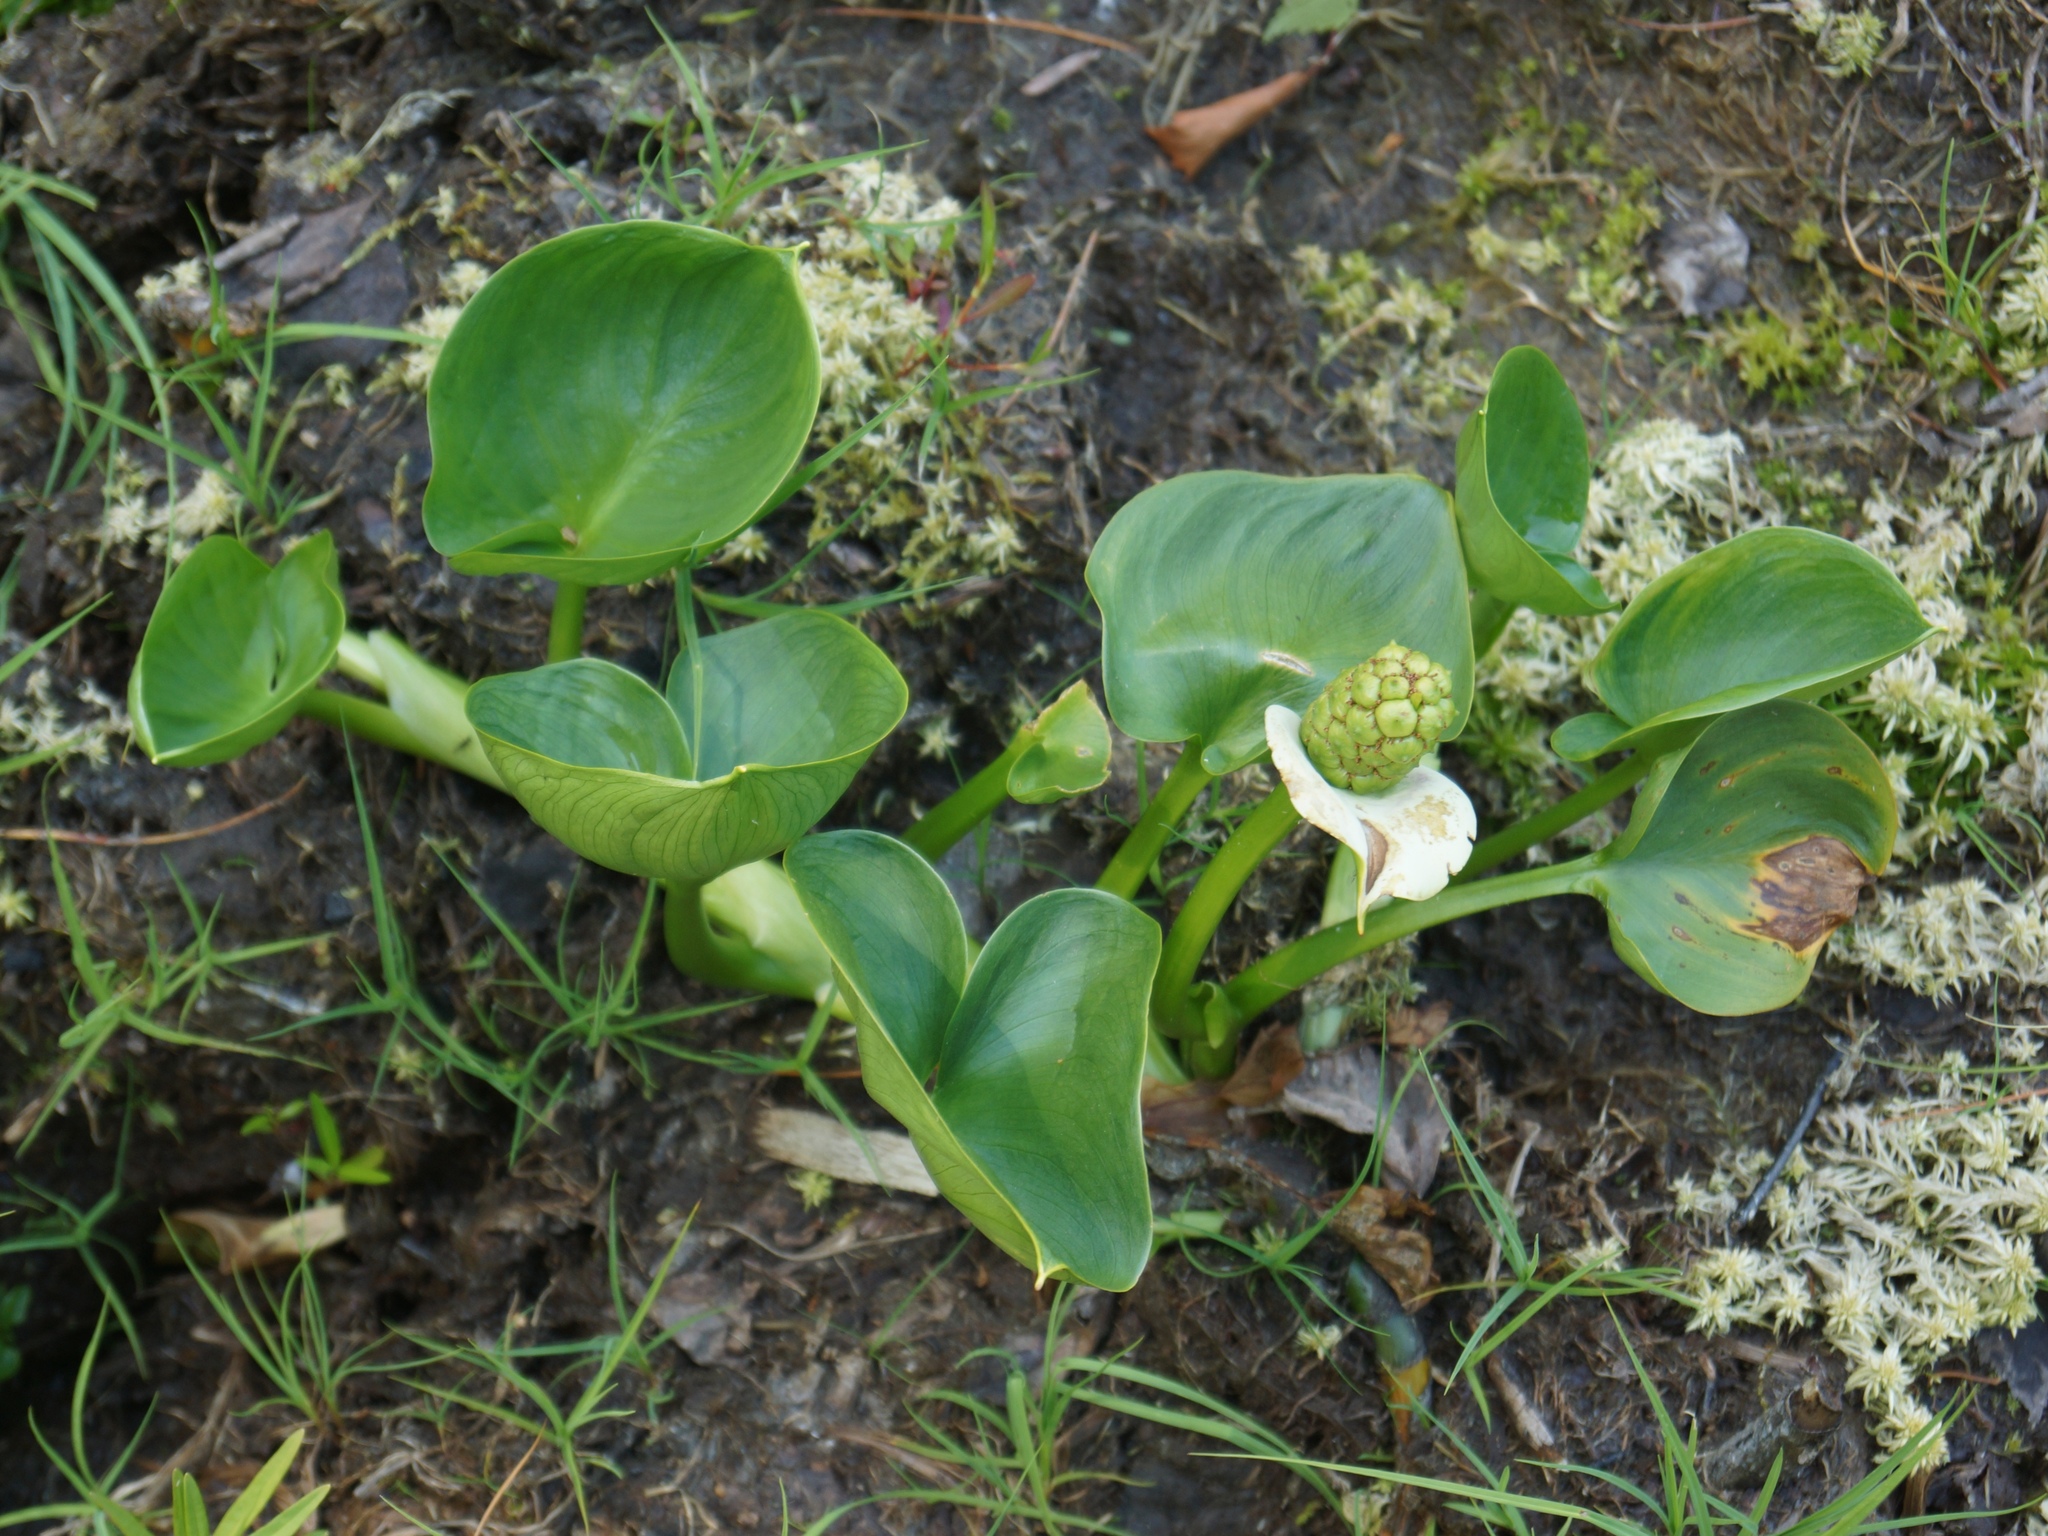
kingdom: Plantae
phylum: Tracheophyta
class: Liliopsida
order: Alismatales
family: Araceae
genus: Calla
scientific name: Calla palustris
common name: Bog arum
